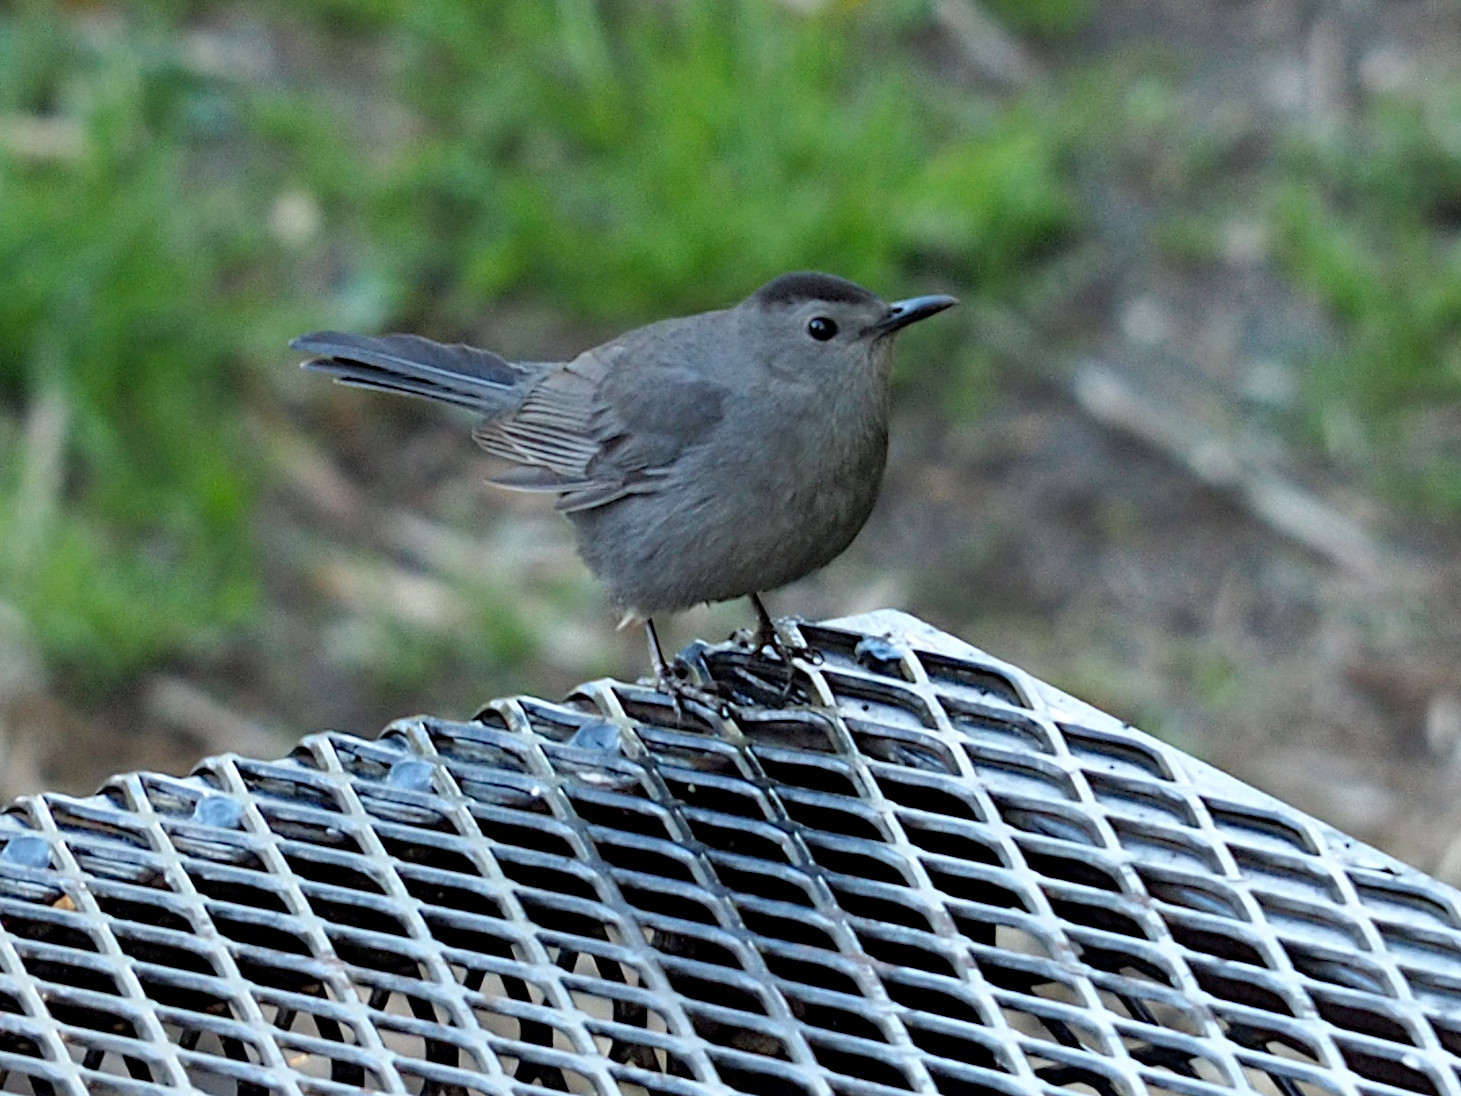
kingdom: Animalia
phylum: Chordata
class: Aves
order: Passeriformes
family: Mimidae
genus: Dumetella
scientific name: Dumetella carolinensis
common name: Gray catbird
